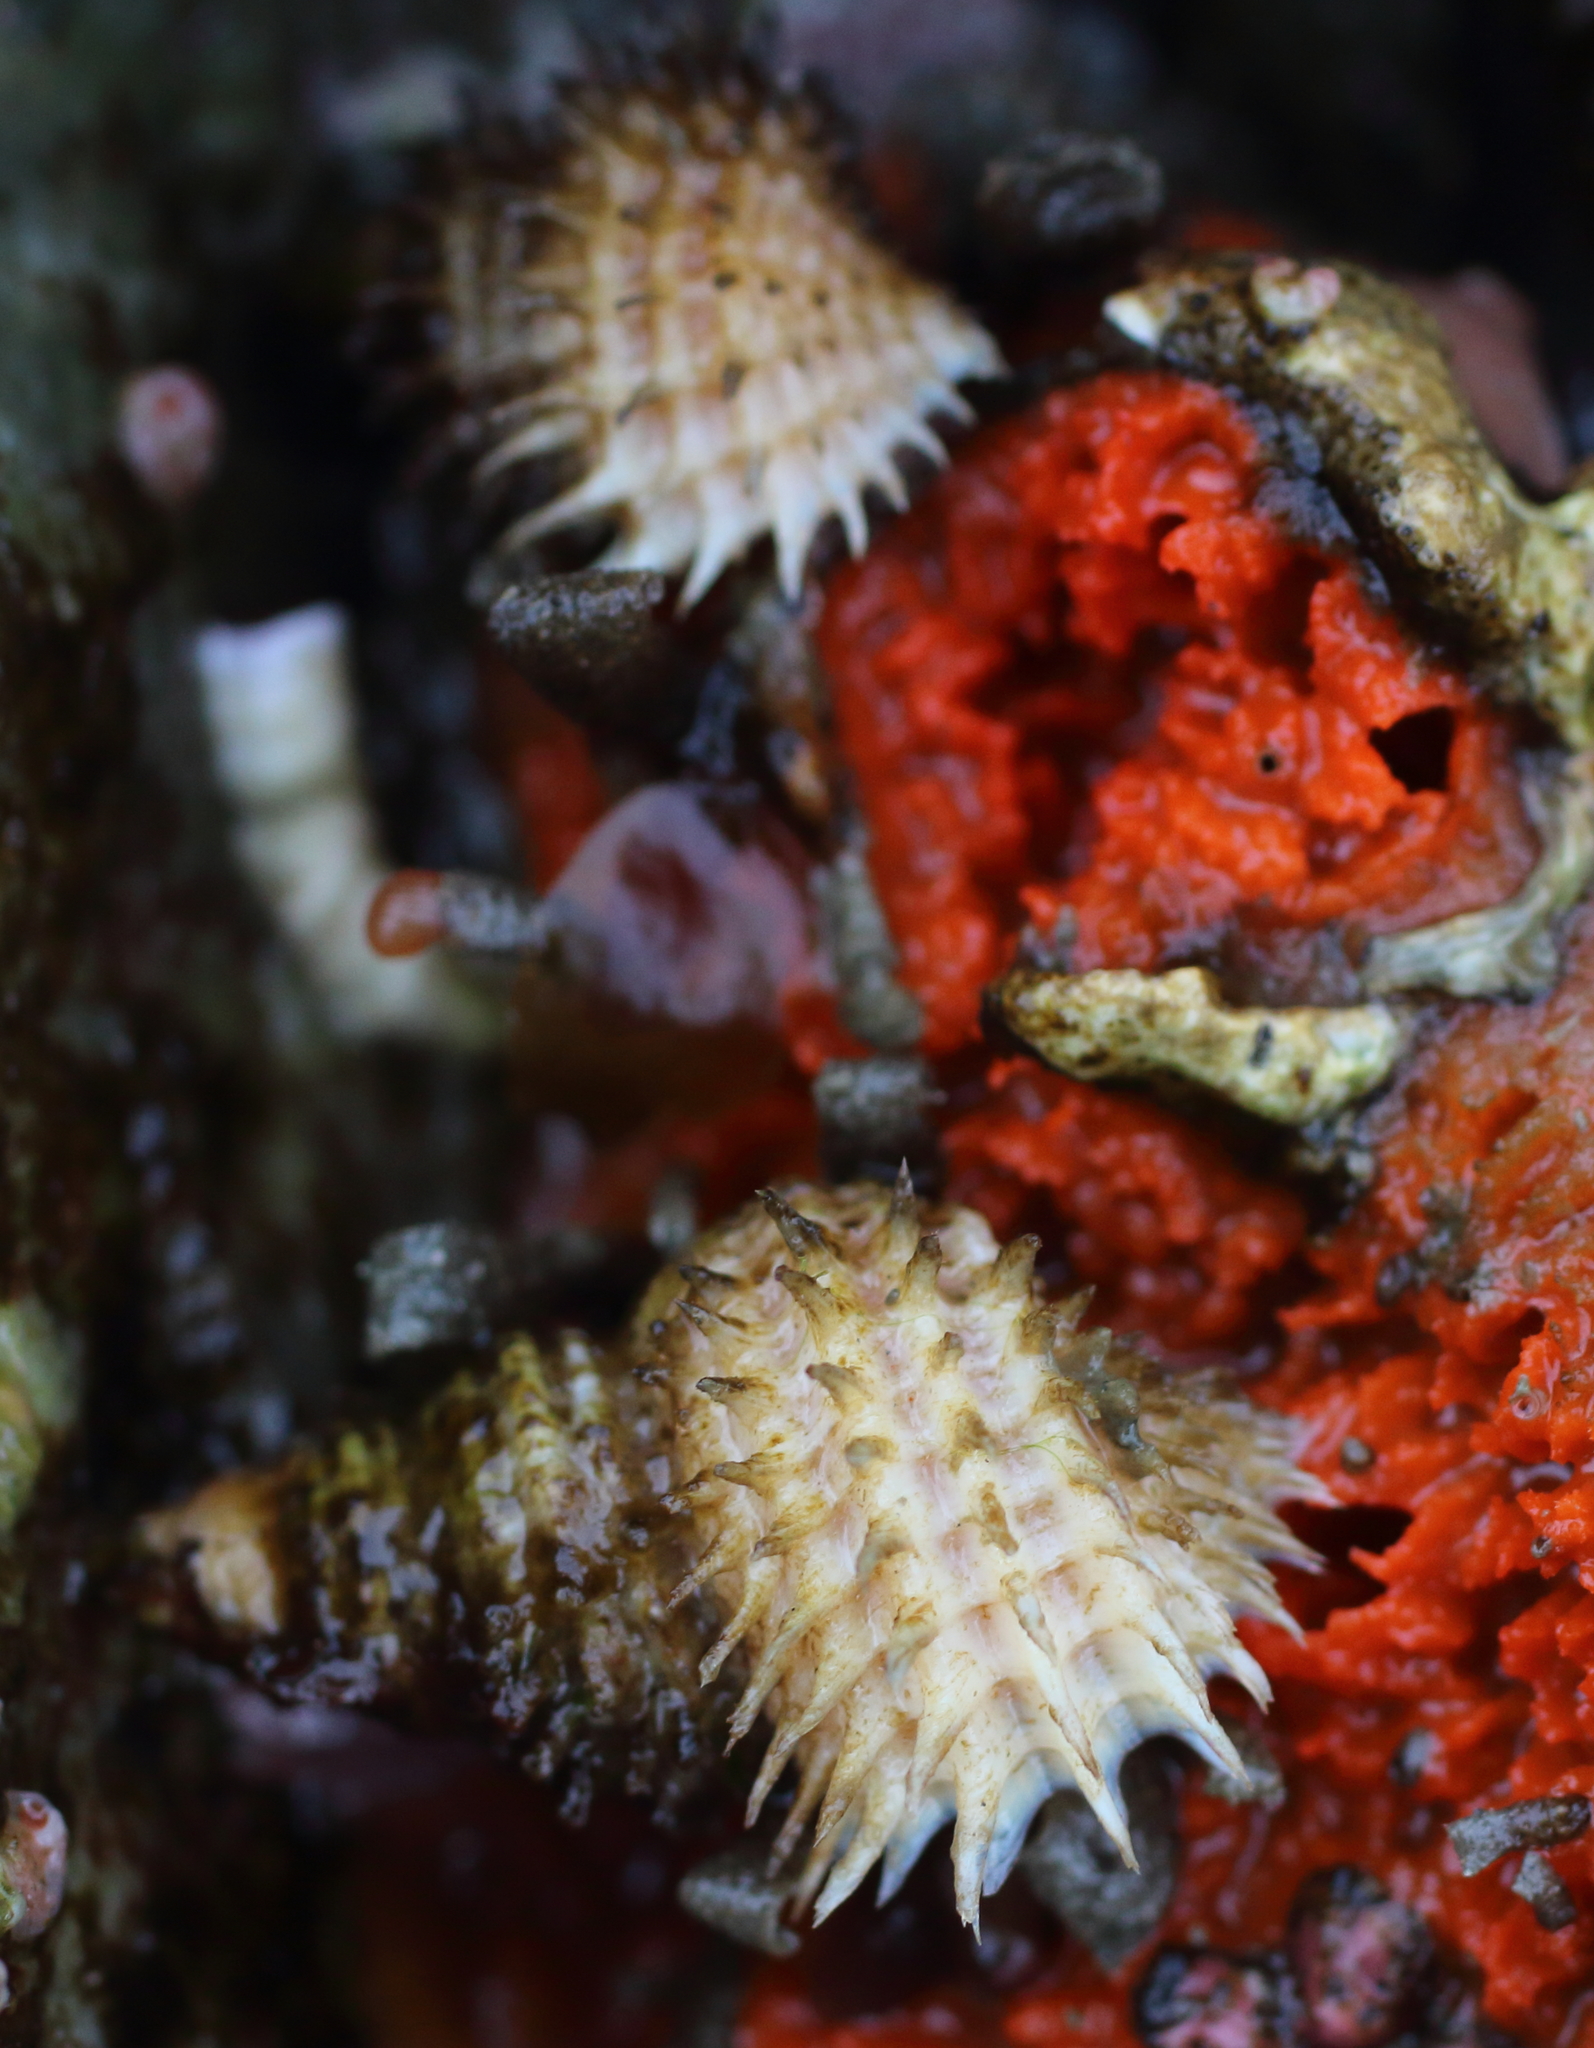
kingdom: Animalia
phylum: Mollusca
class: Gastropoda
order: Littorinimorpha
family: Capulidae
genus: Trichotropis
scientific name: Trichotropis cancellata
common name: Cancellate hairysnail
